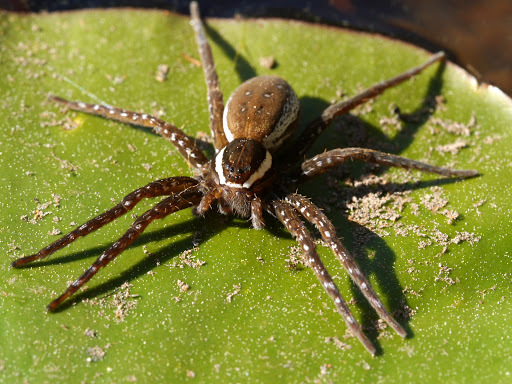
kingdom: Animalia
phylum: Arthropoda
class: Arachnida
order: Araneae
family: Pisauridae
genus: Dolomedes
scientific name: Dolomedes triton
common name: Six-spotted fishing spider
